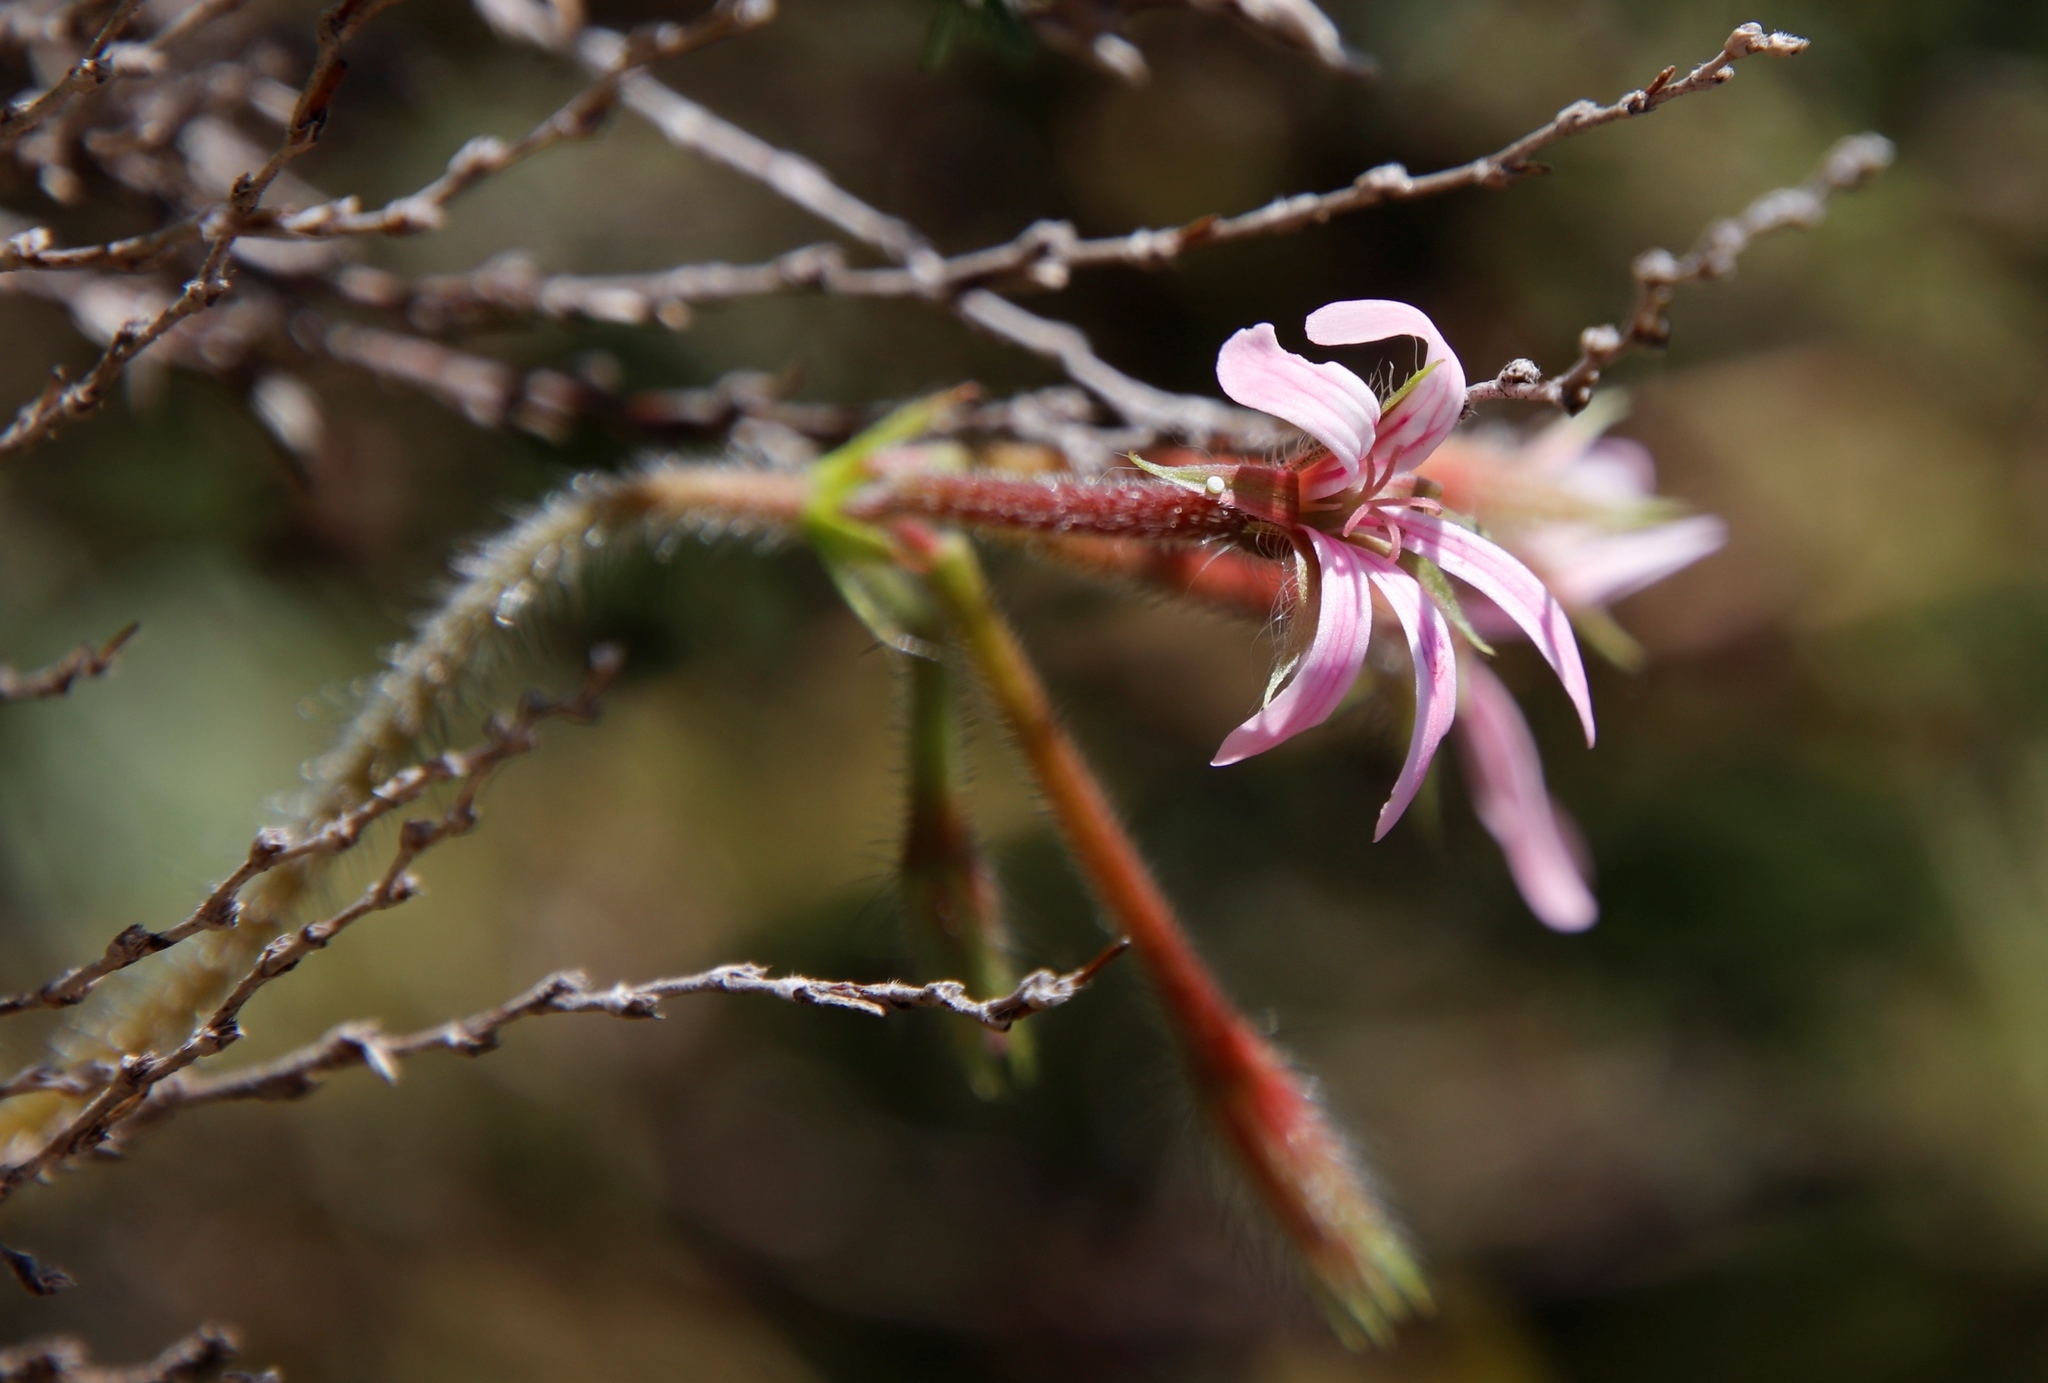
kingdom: Plantae
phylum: Tracheophyta
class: Magnoliopsida
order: Geraniales
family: Geraniaceae
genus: Pelargonium
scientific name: Pelargonium alchemilloides
